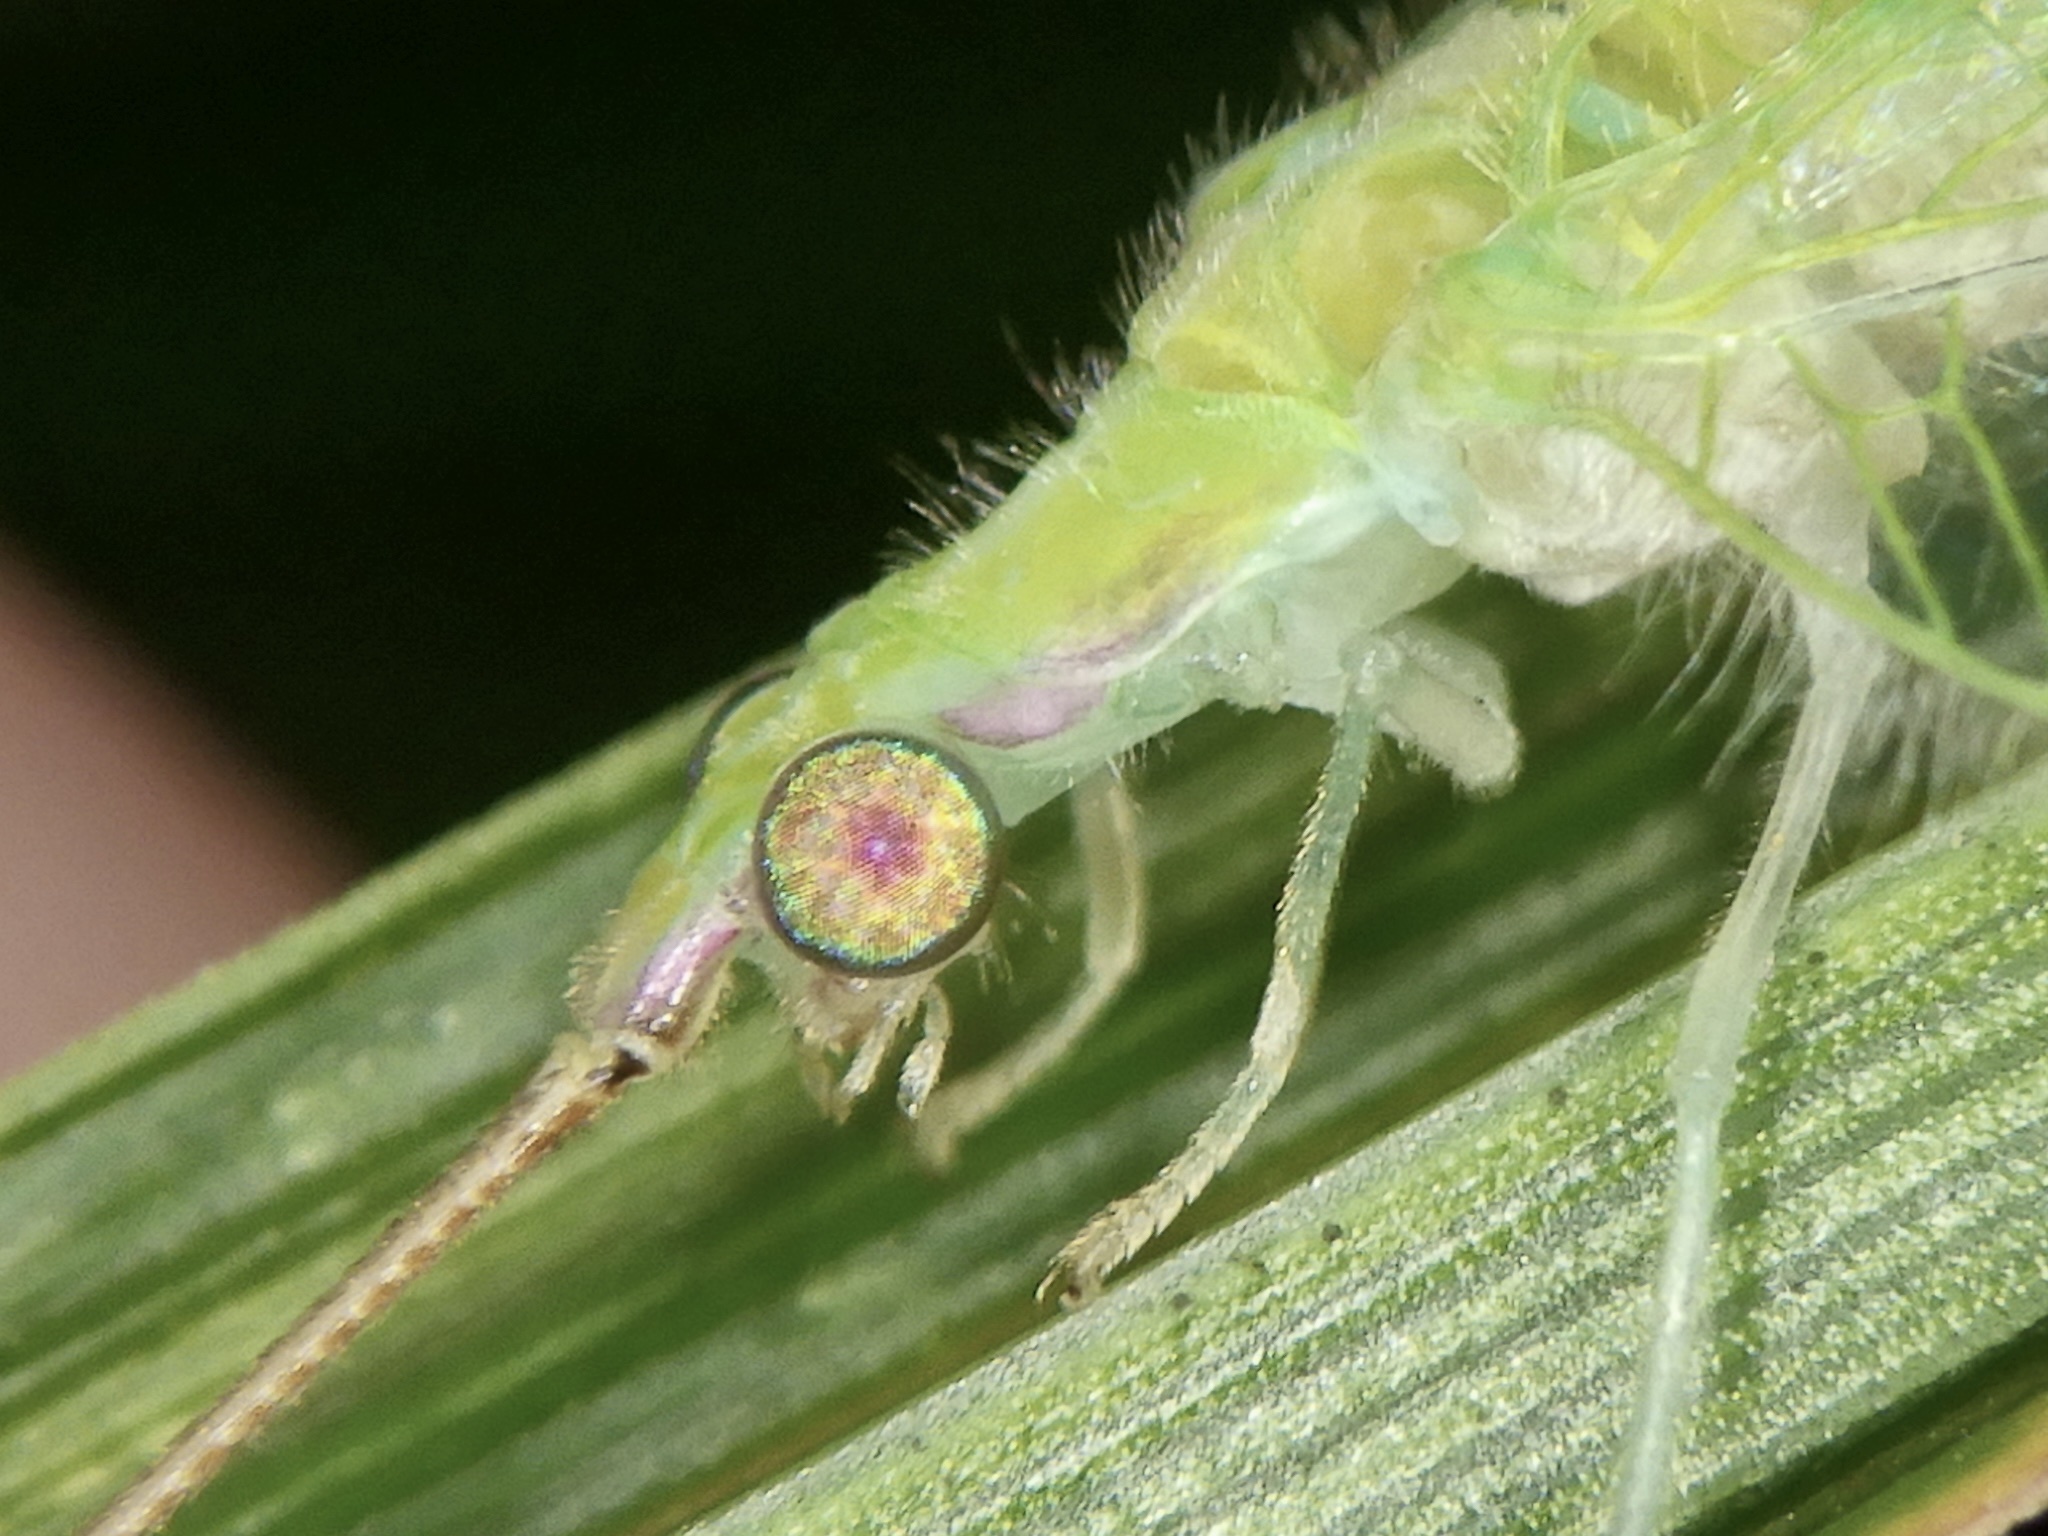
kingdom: Animalia
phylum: Arthropoda
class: Insecta
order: Neuroptera
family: Chrysopidae
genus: Apochrysa
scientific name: Apochrysa matsumurae
